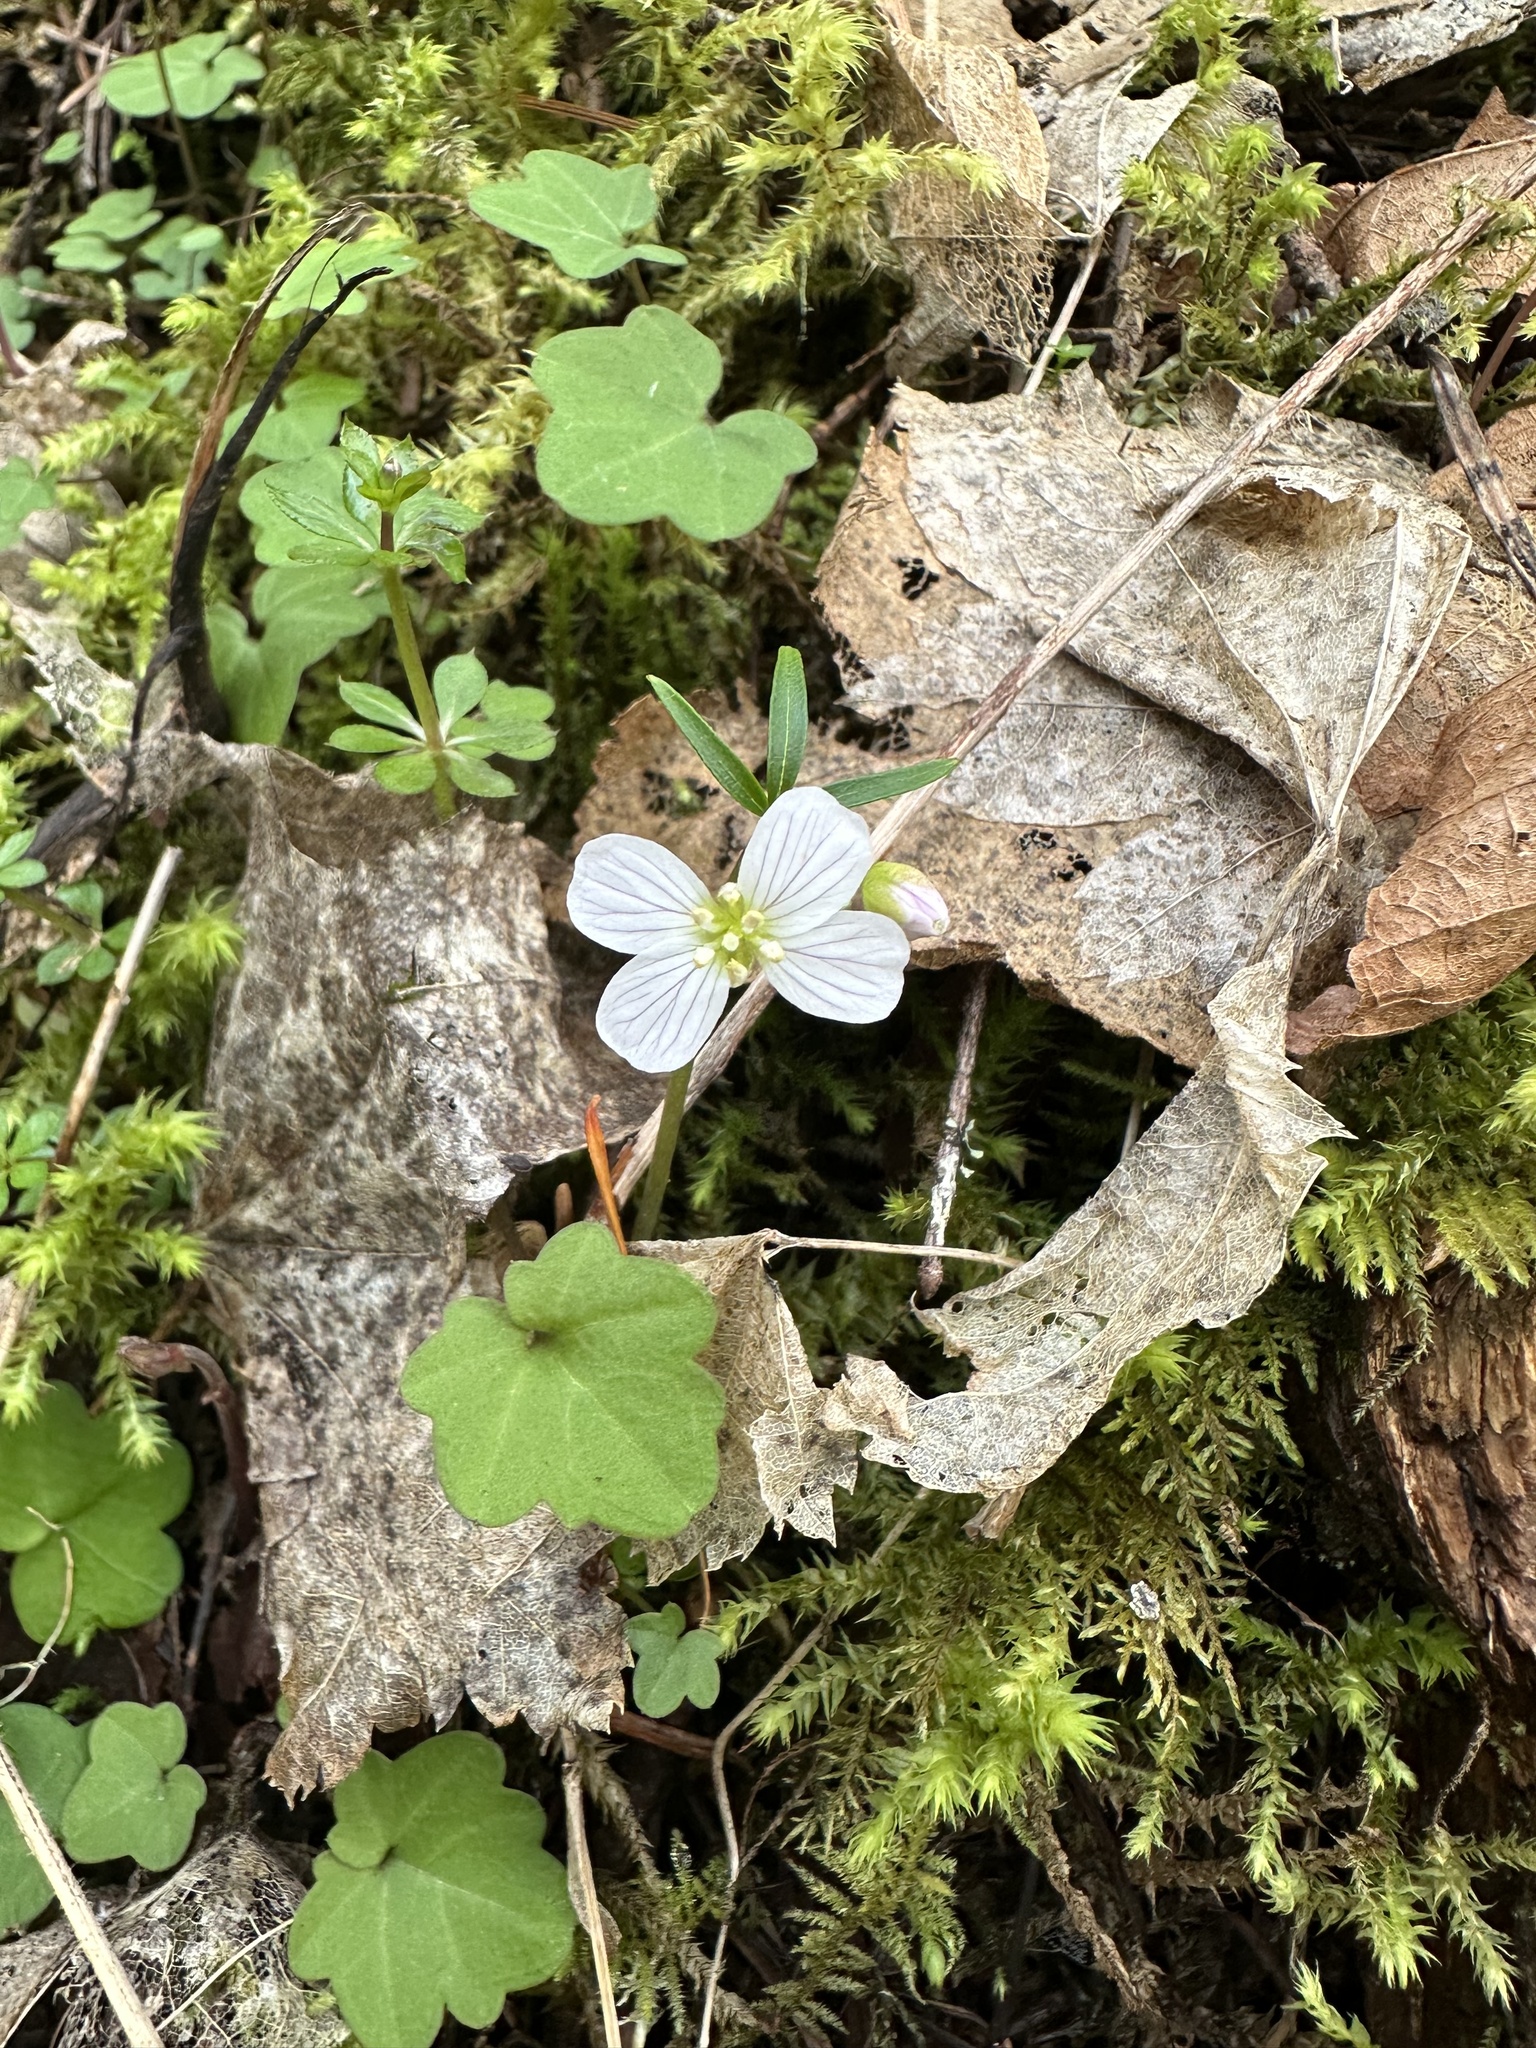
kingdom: Plantae
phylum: Tracheophyta
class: Magnoliopsida
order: Brassicales
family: Brassicaceae
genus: Cardamine
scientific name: Cardamine nuttallii
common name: Nuttall's toothwort
